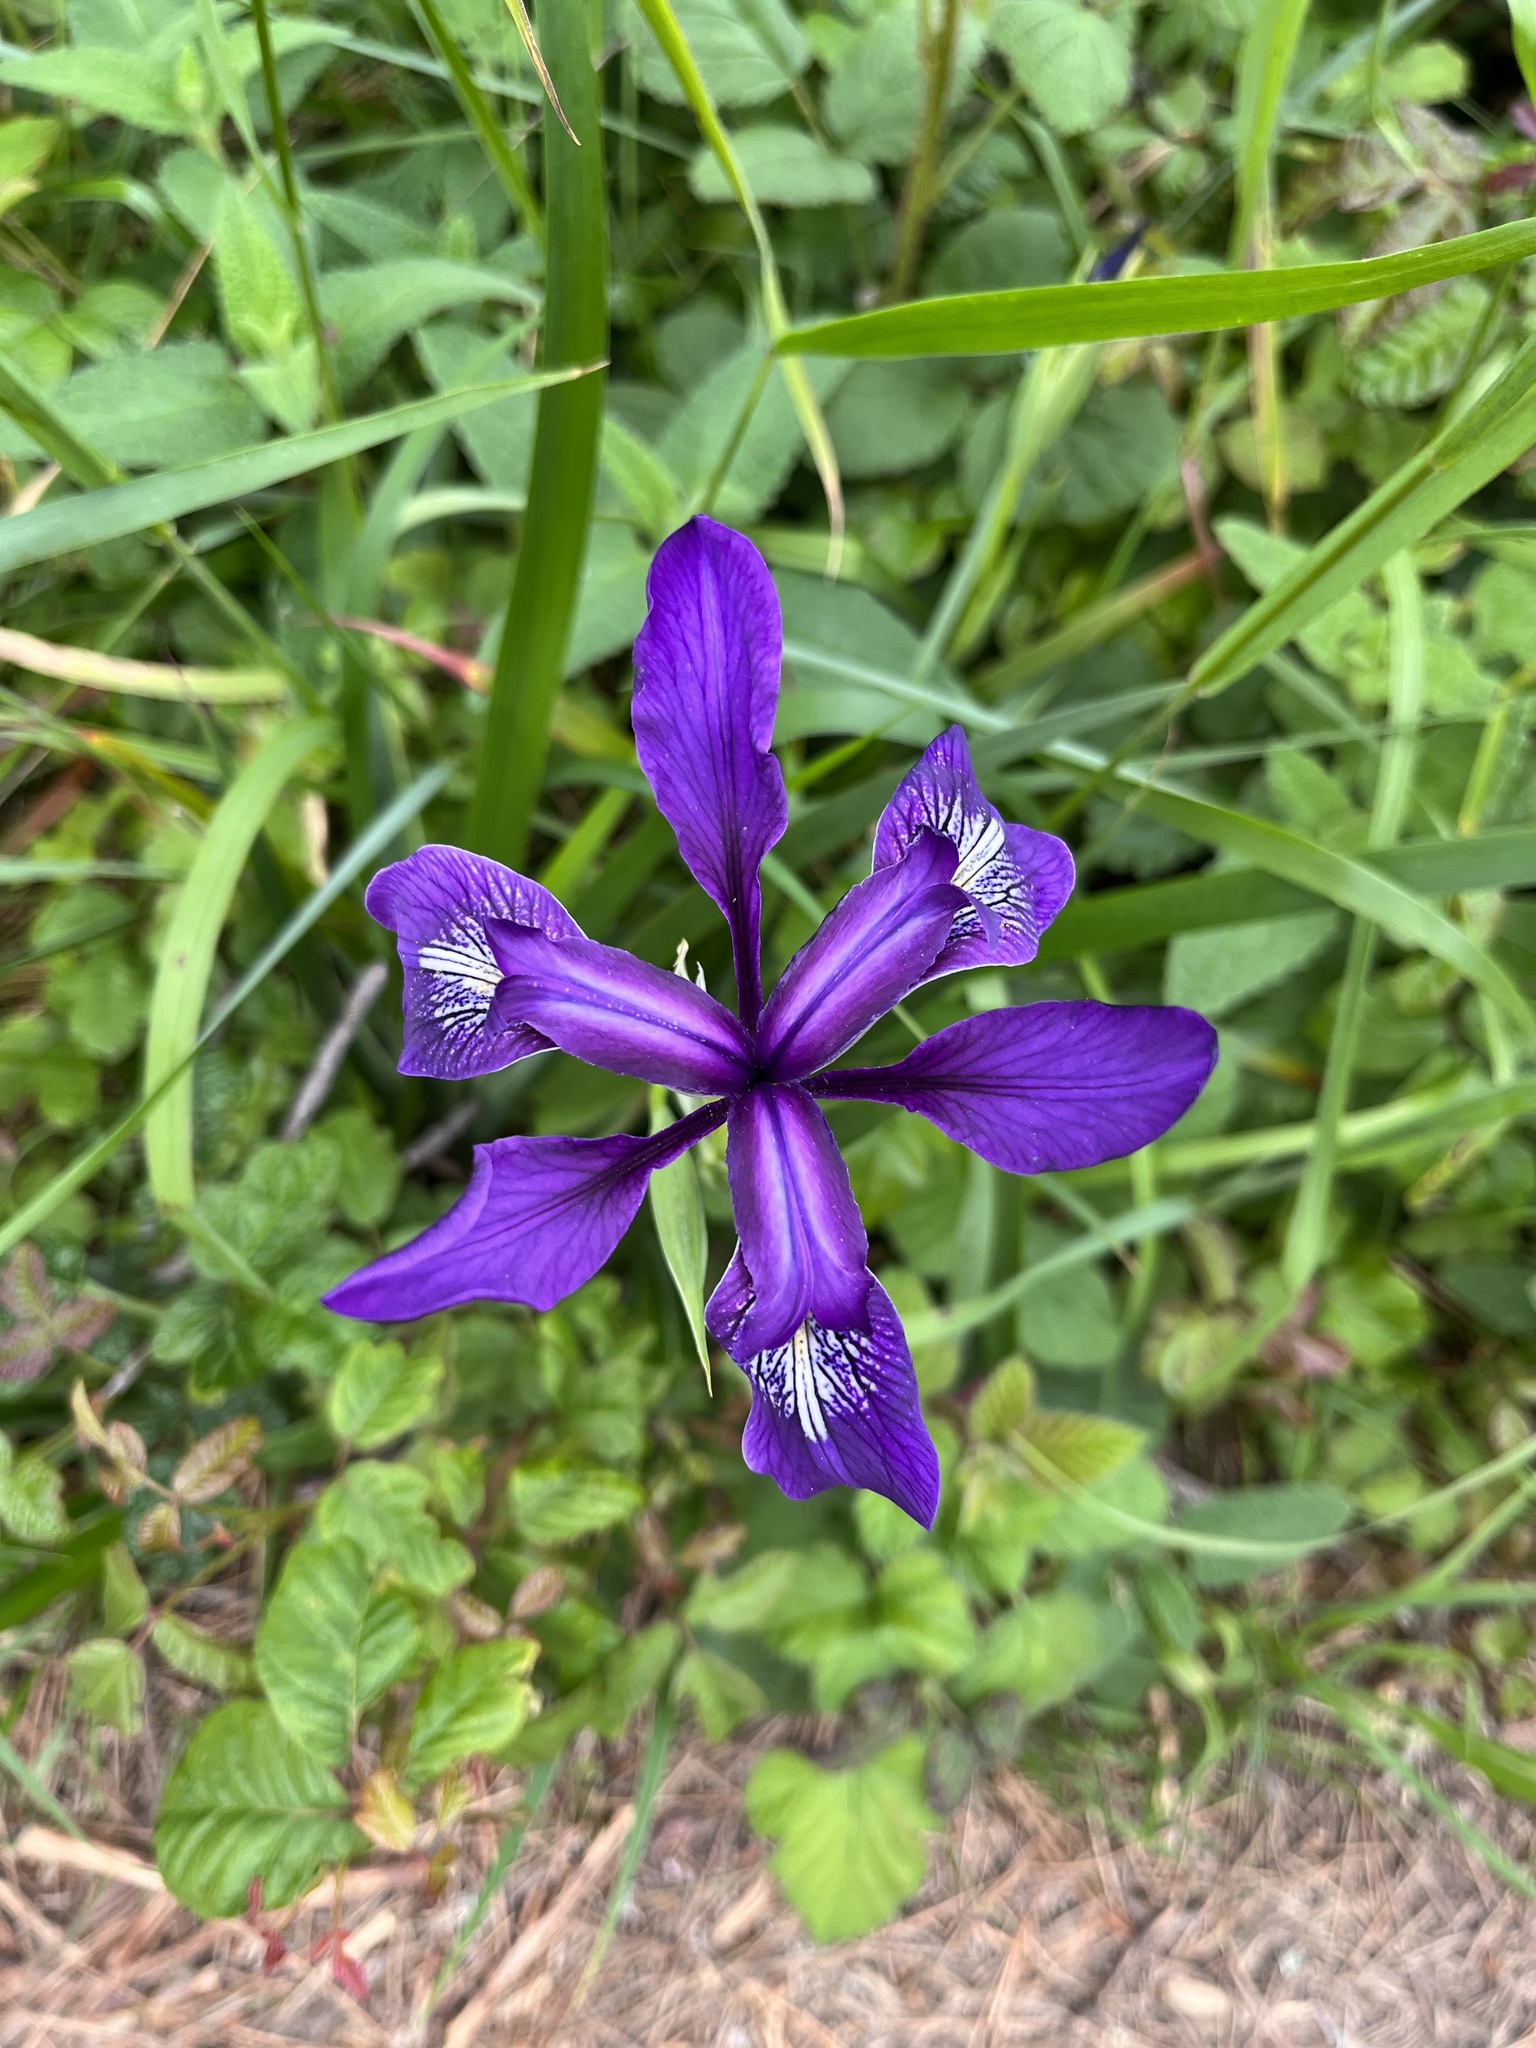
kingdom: Plantae
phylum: Tracheophyta
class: Liliopsida
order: Asparagales
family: Iridaceae
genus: Iris
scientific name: Iris douglasiana
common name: Marin iris
